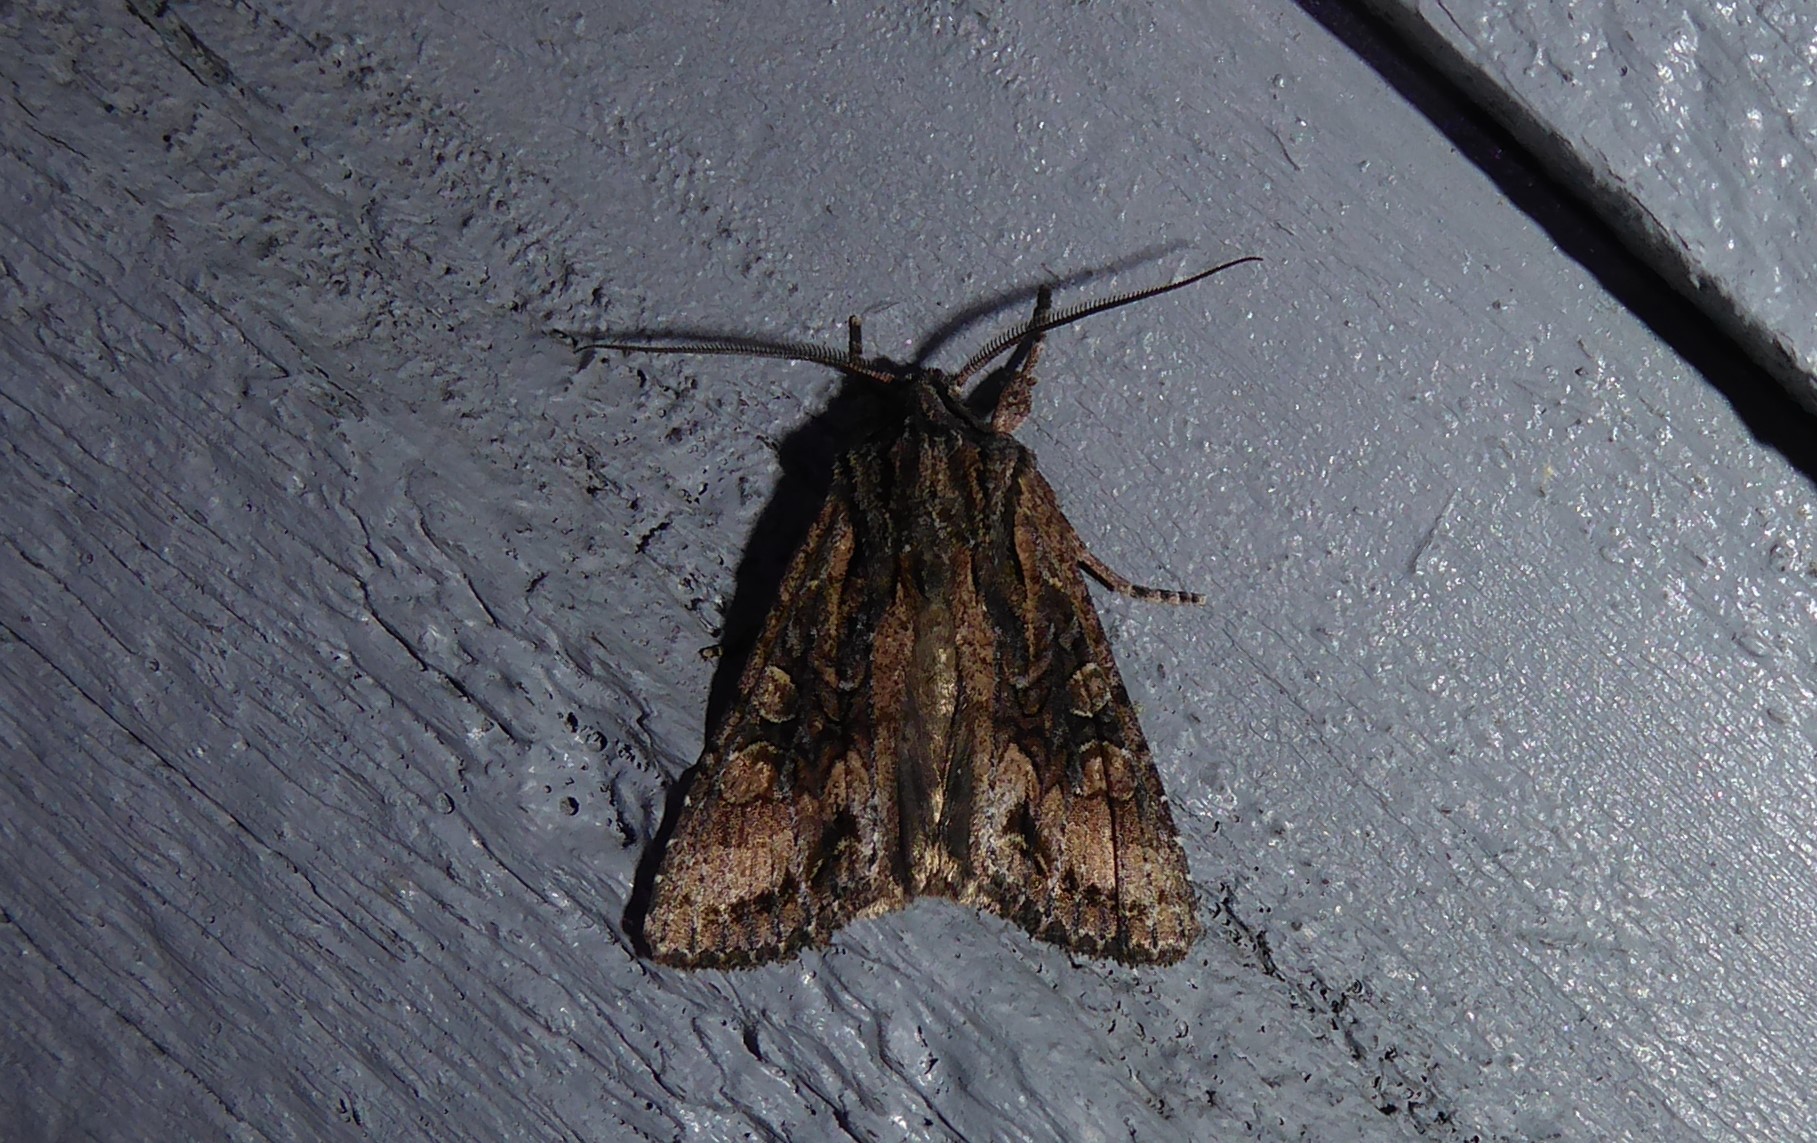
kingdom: Animalia
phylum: Arthropoda
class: Insecta
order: Lepidoptera
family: Noctuidae
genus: Ichneutica
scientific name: Ichneutica mutans
